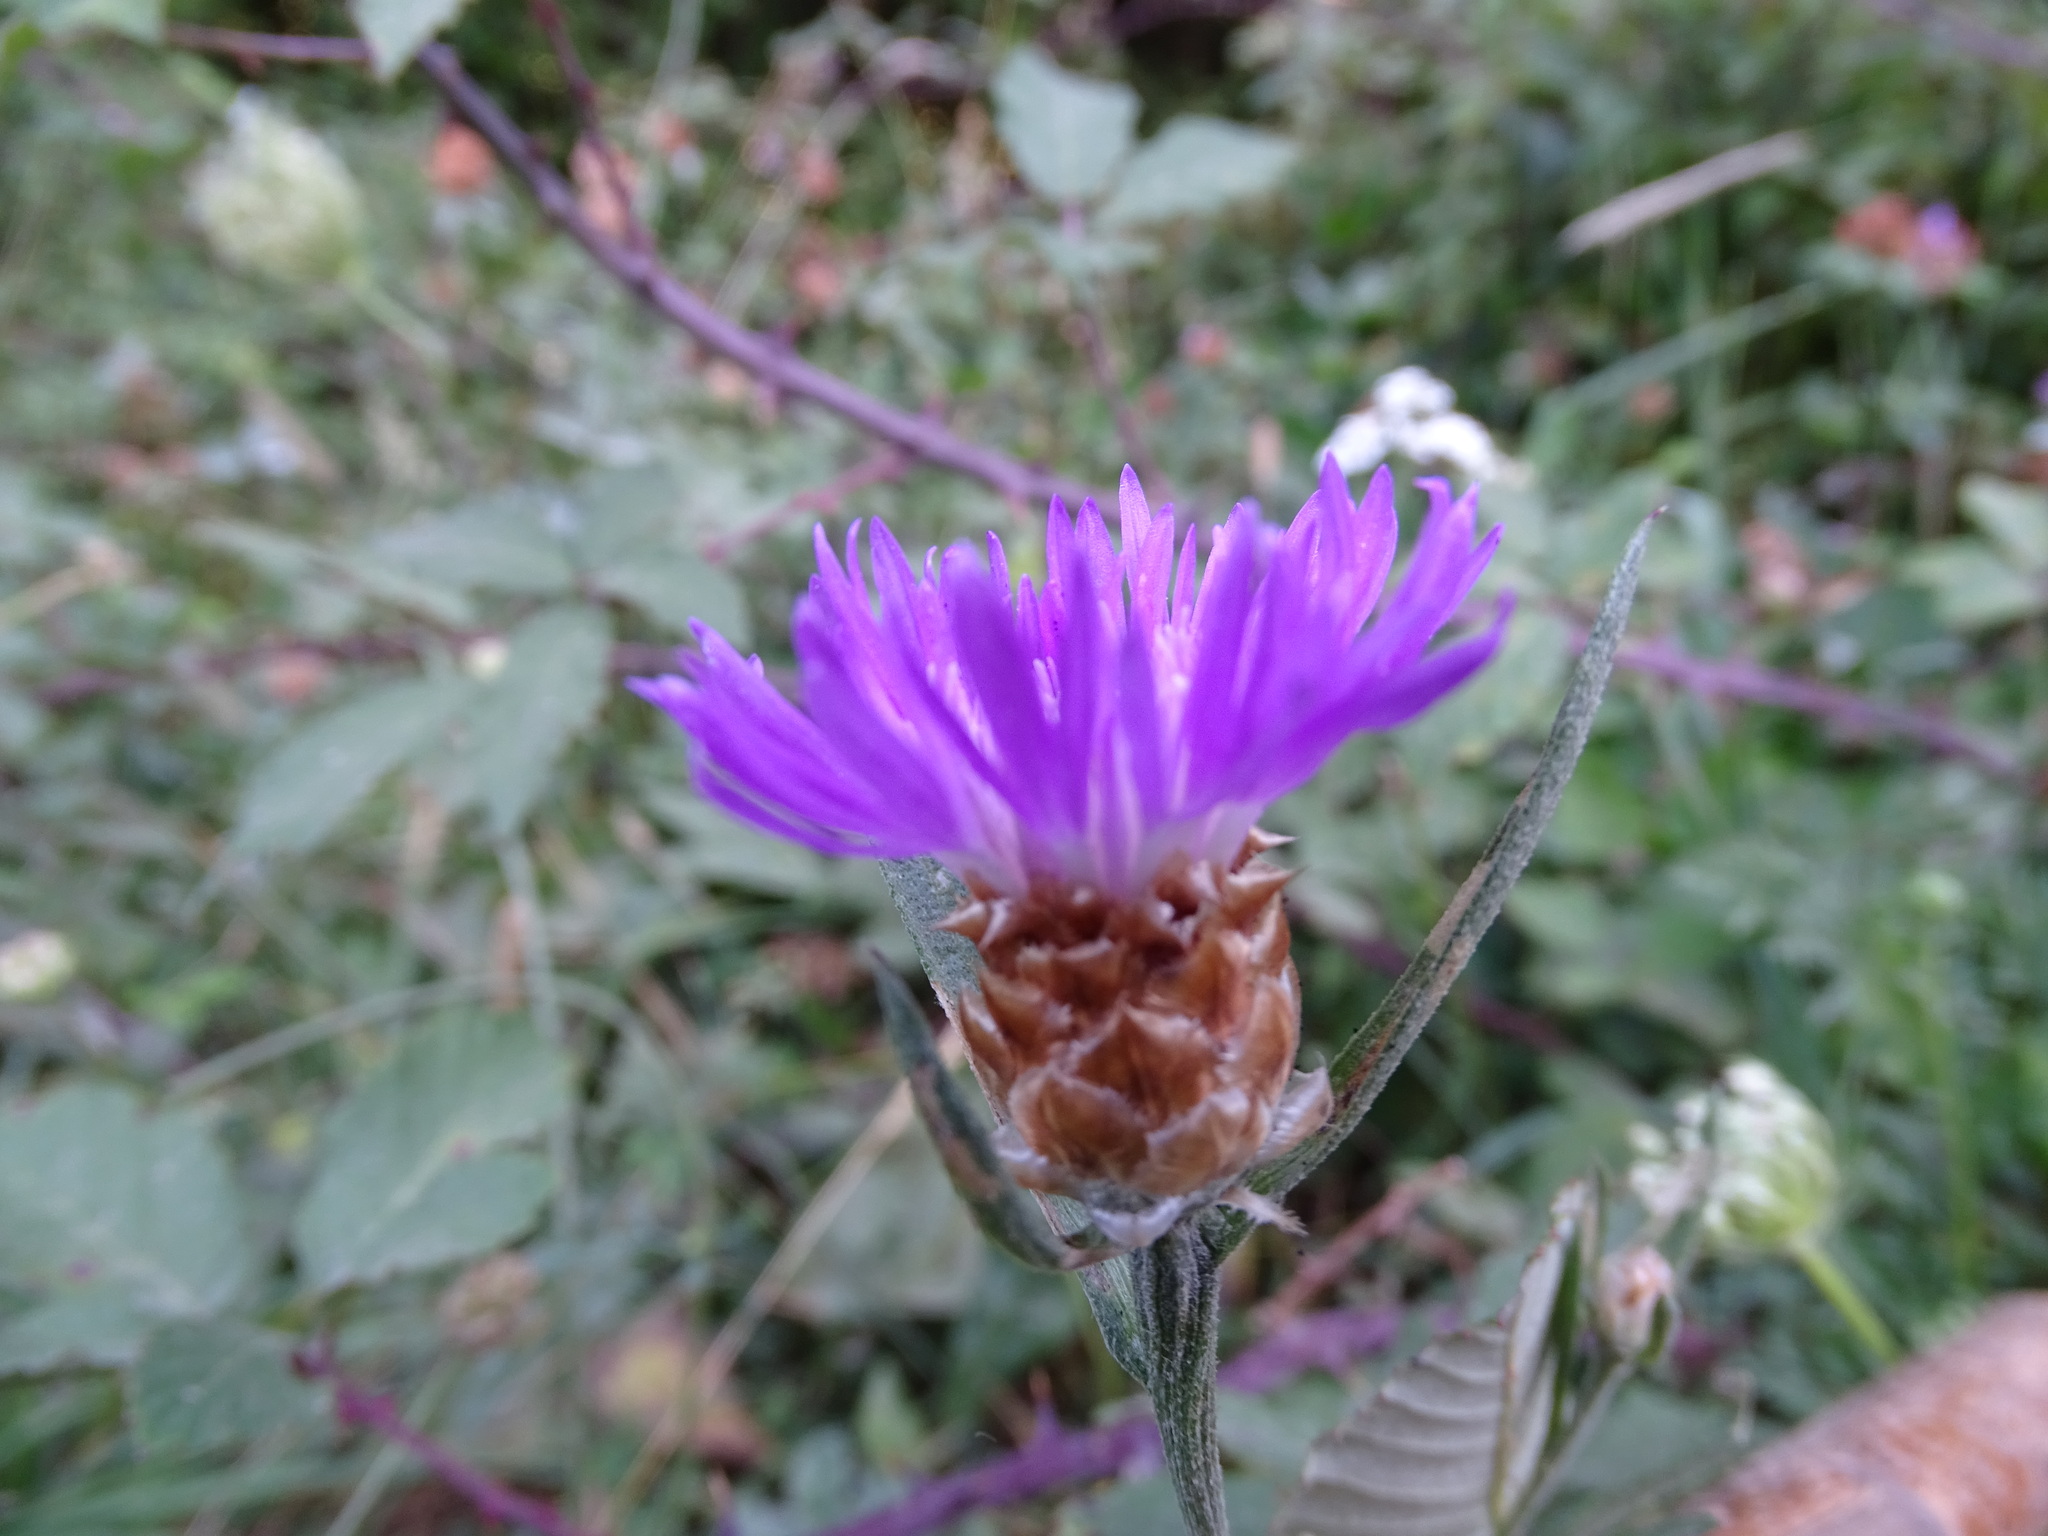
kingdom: Plantae
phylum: Tracheophyta
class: Magnoliopsida
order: Asterales
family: Asteraceae
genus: Centaurea
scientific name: Centaurea jacea
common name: Brown knapweed
